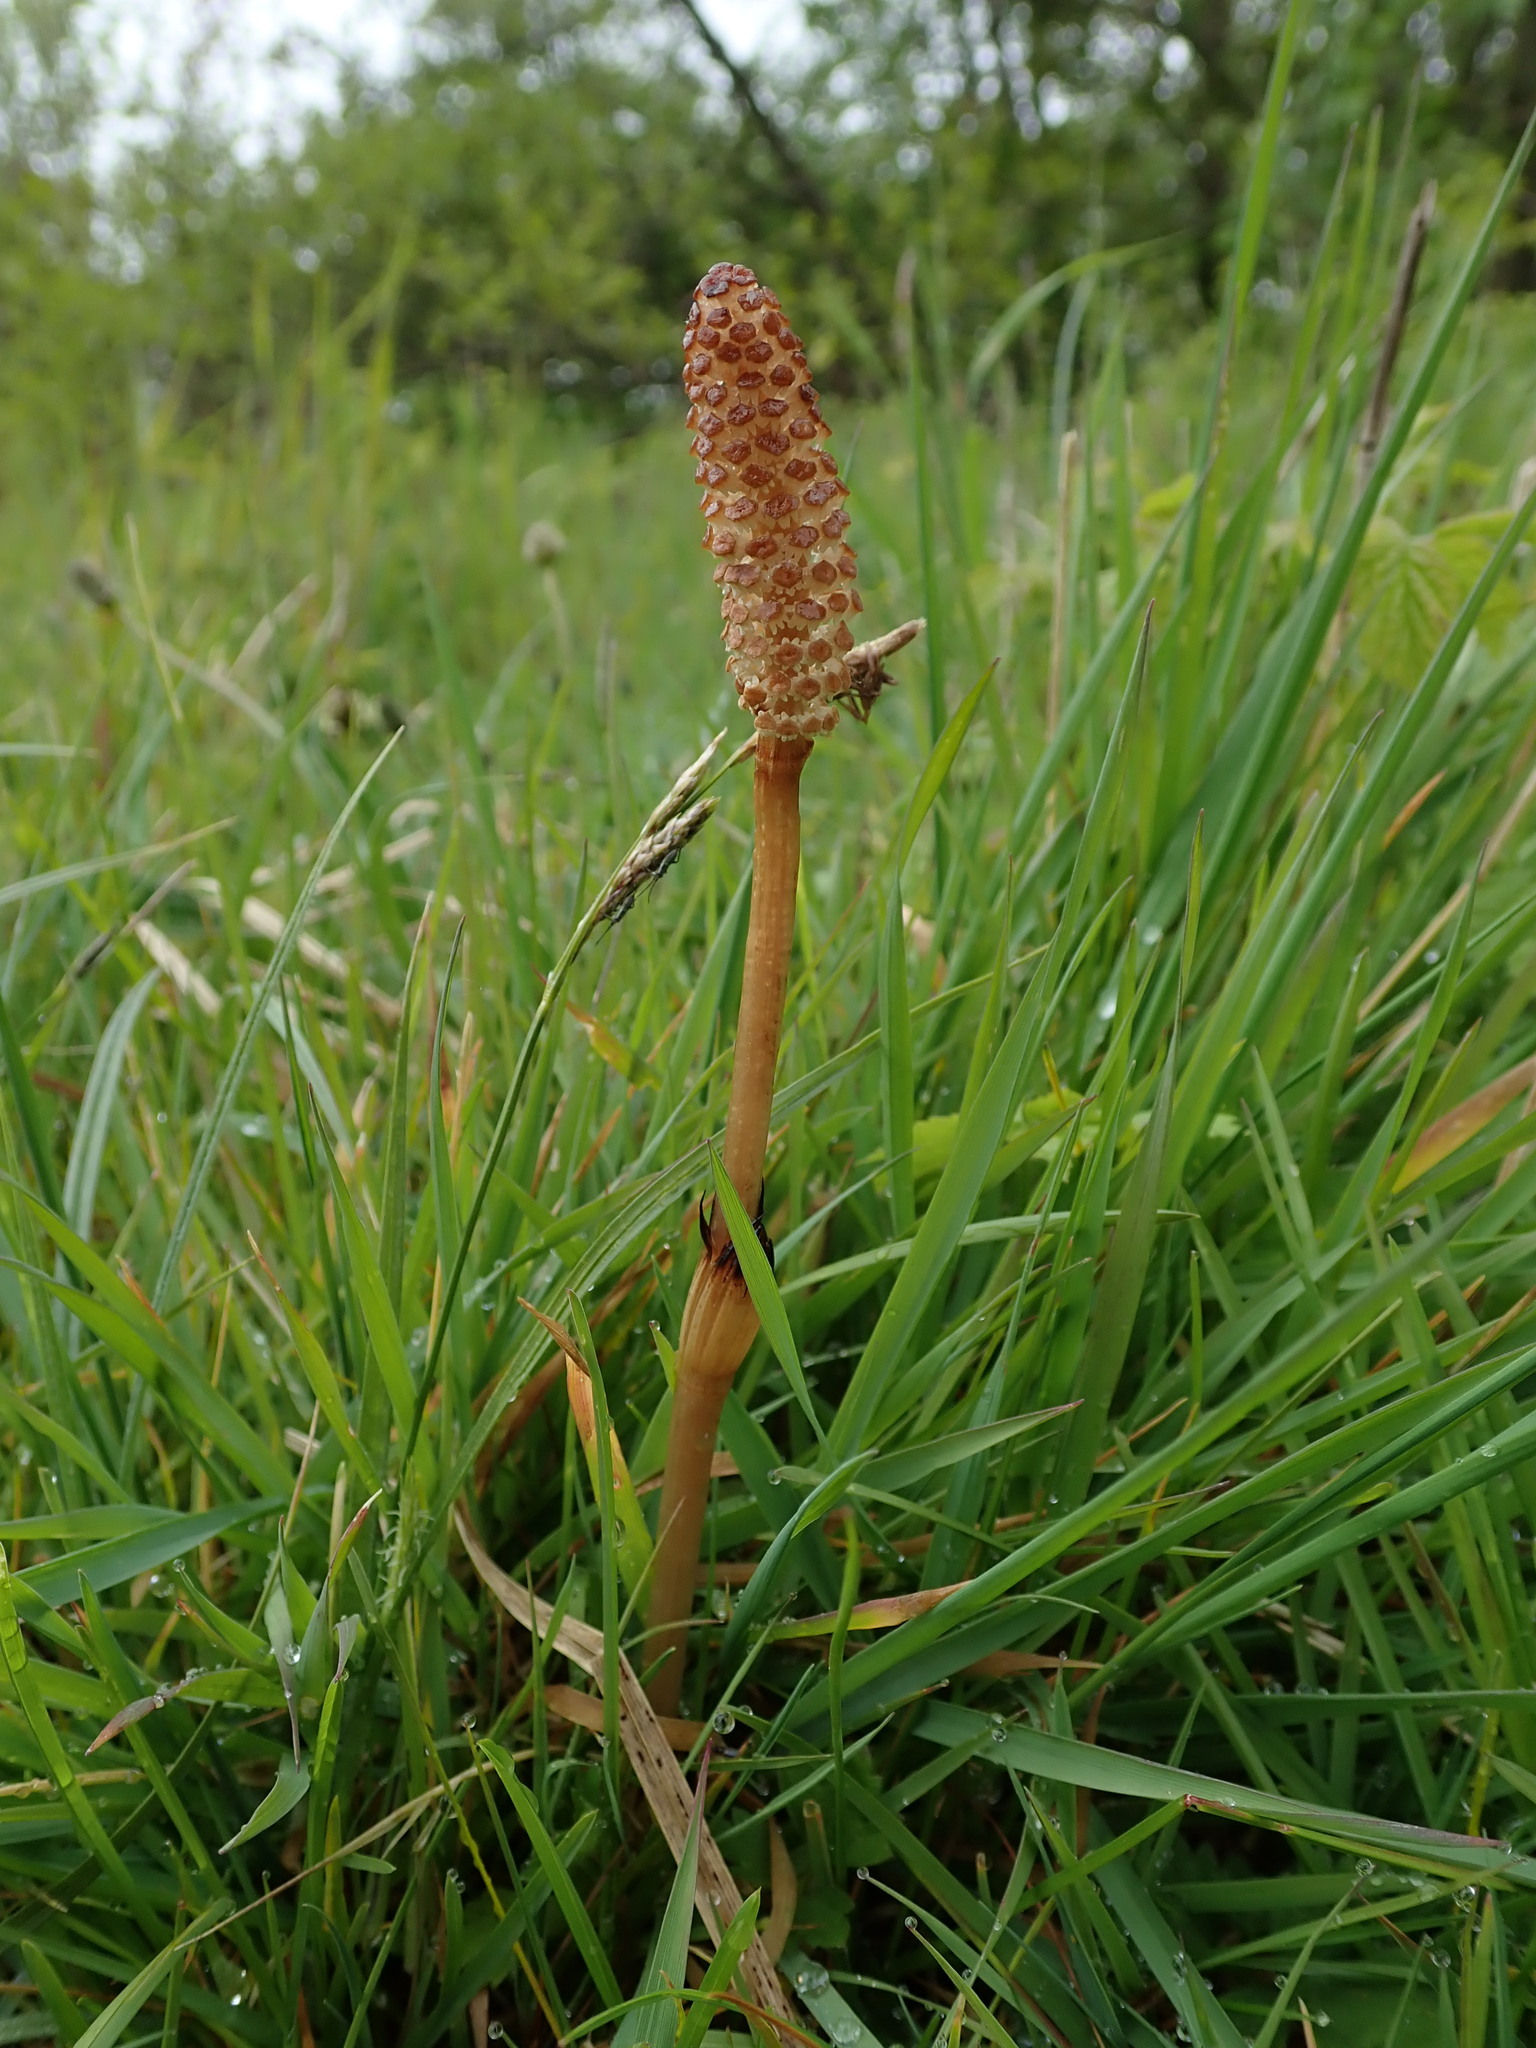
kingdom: Plantae
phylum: Tracheophyta
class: Polypodiopsida
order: Equisetales
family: Equisetaceae
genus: Equisetum
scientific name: Equisetum arvense
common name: Field horsetail
